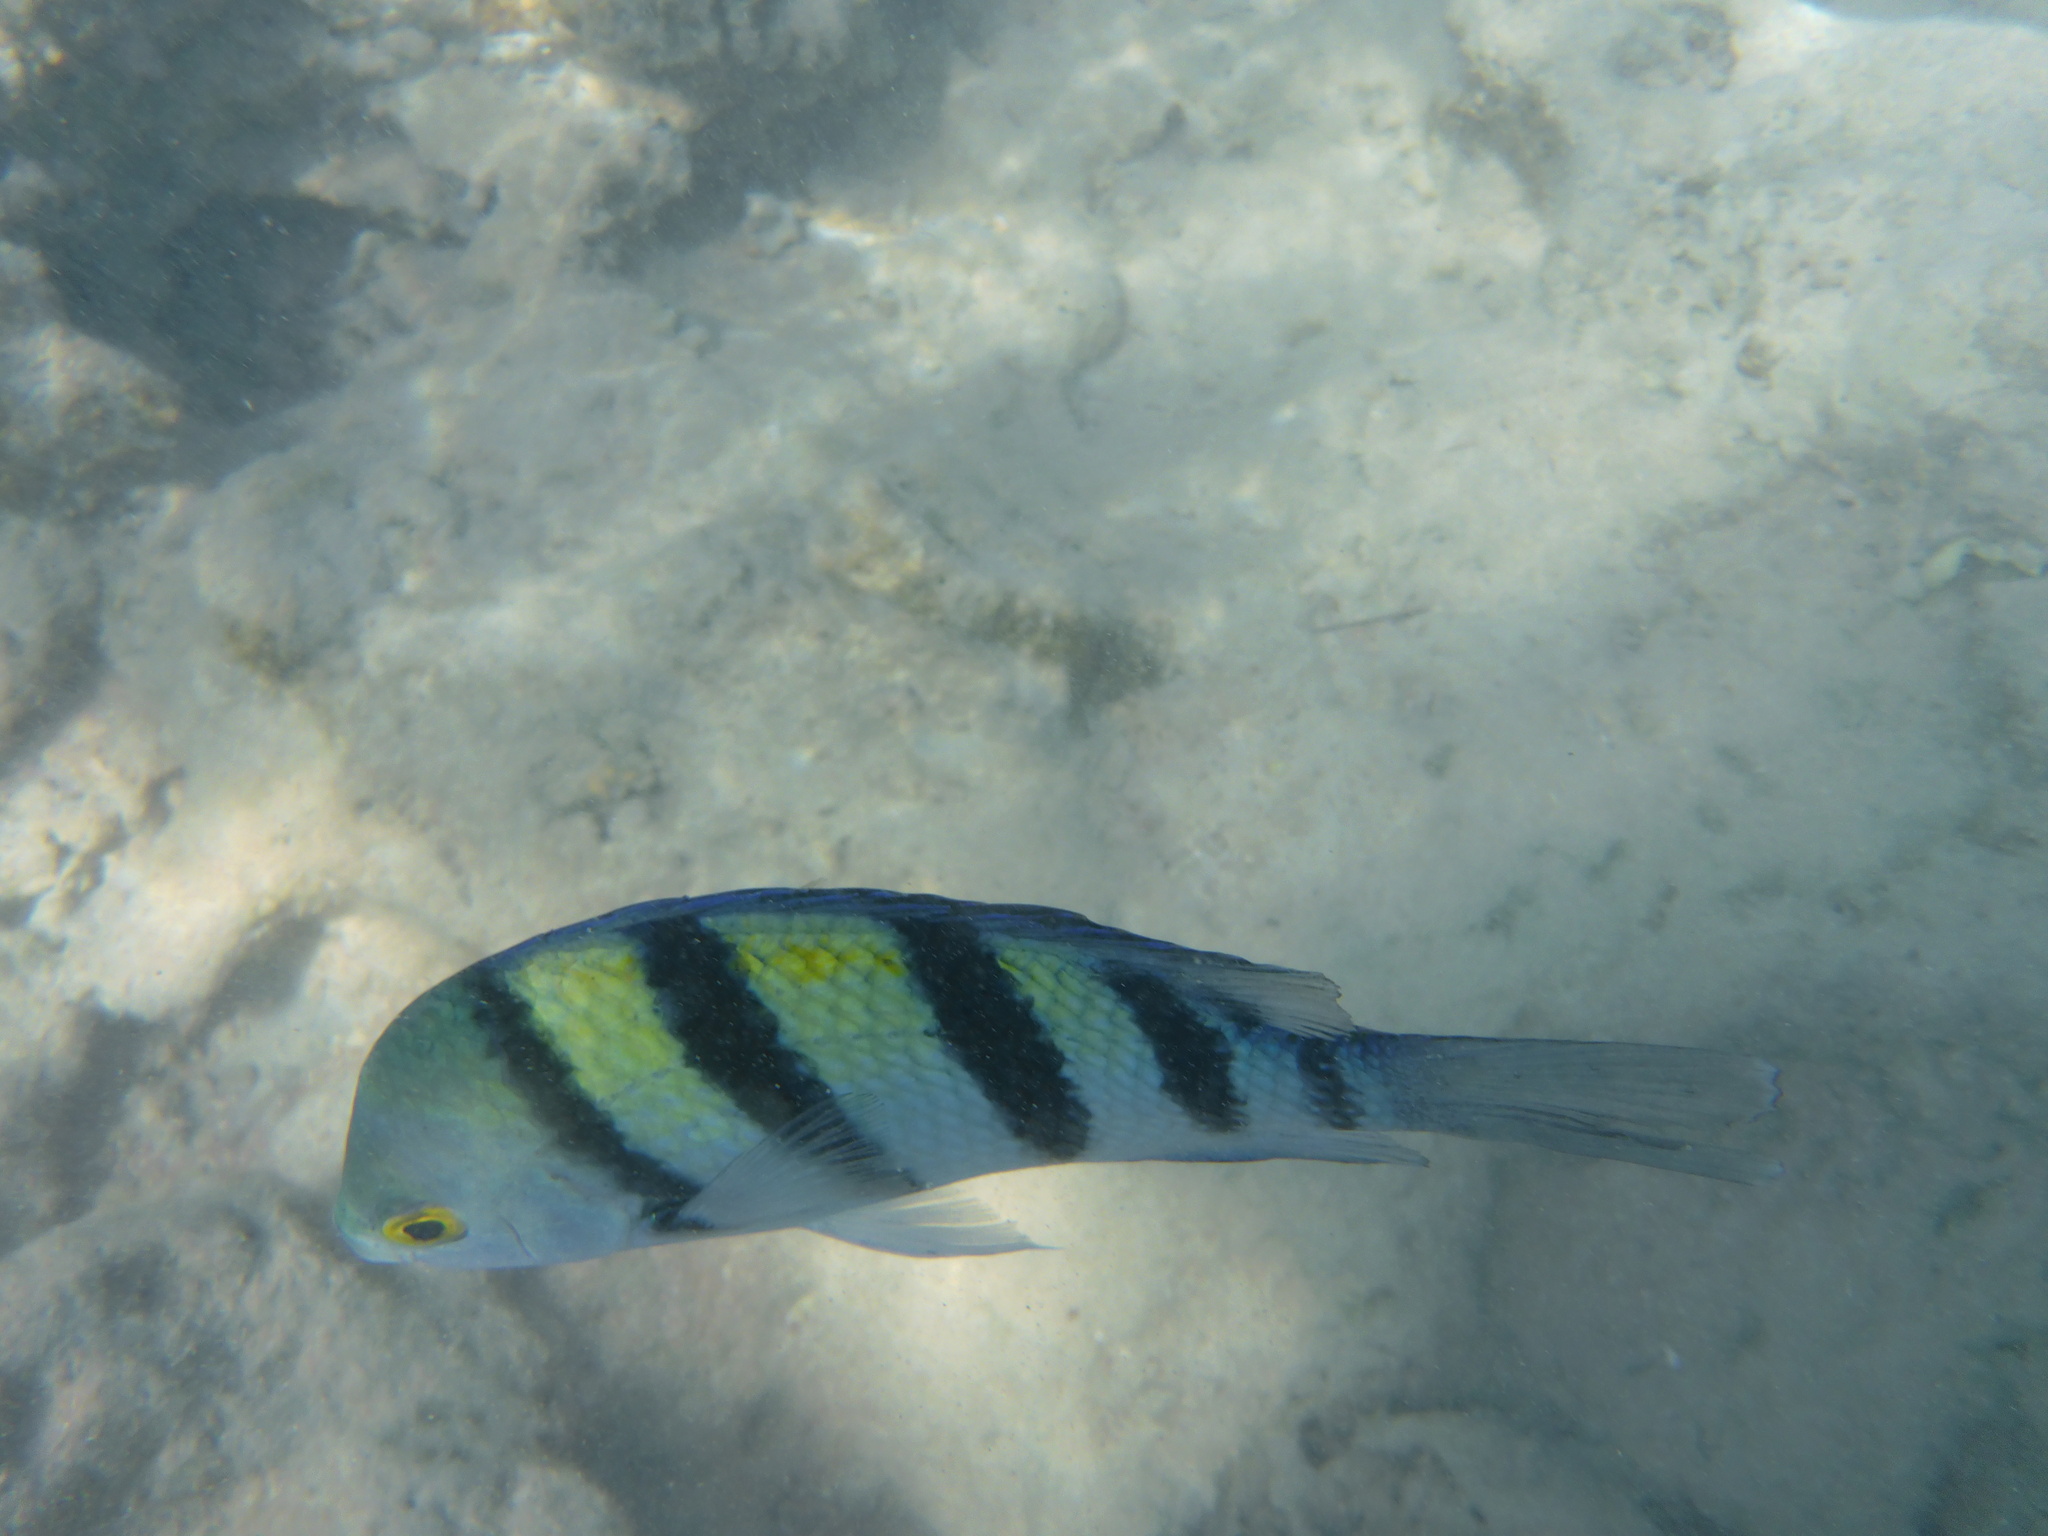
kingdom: Animalia
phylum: Chordata
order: Perciformes
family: Pomacentridae
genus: Abudefduf
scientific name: Abudefduf vaigiensis
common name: Indo-pacific sergeant
